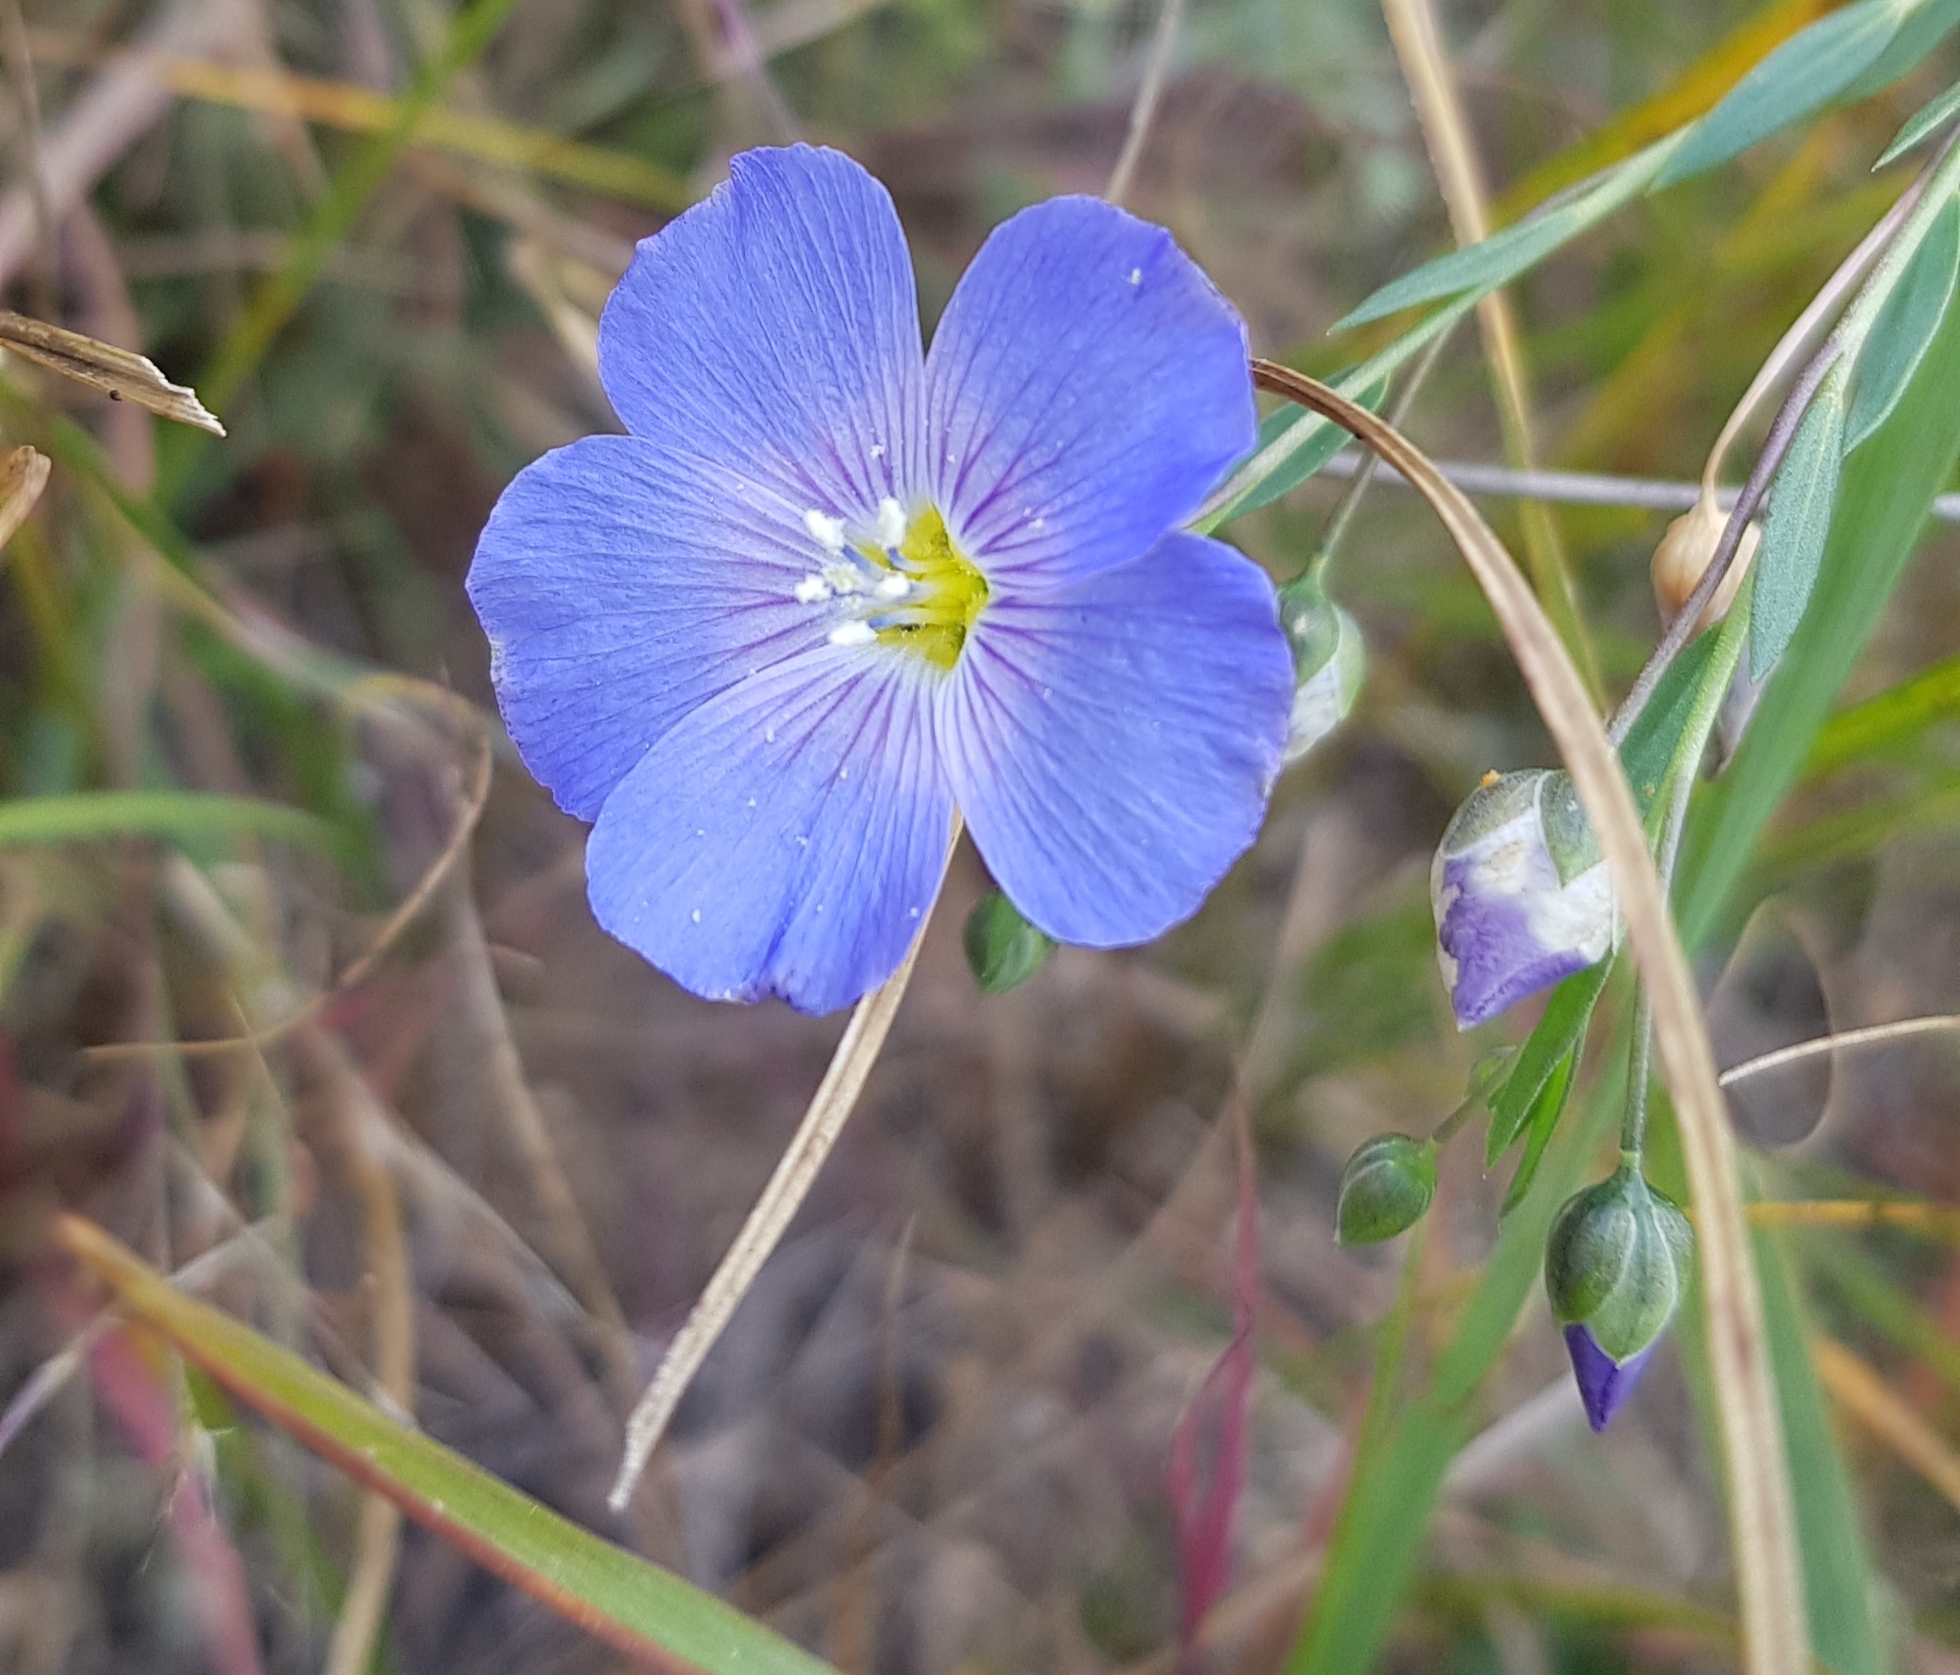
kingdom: Plantae
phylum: Tracheophyta
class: Magnoliopsida
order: Malpighiales
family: Linaceae
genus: Linum
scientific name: Linum nutans
